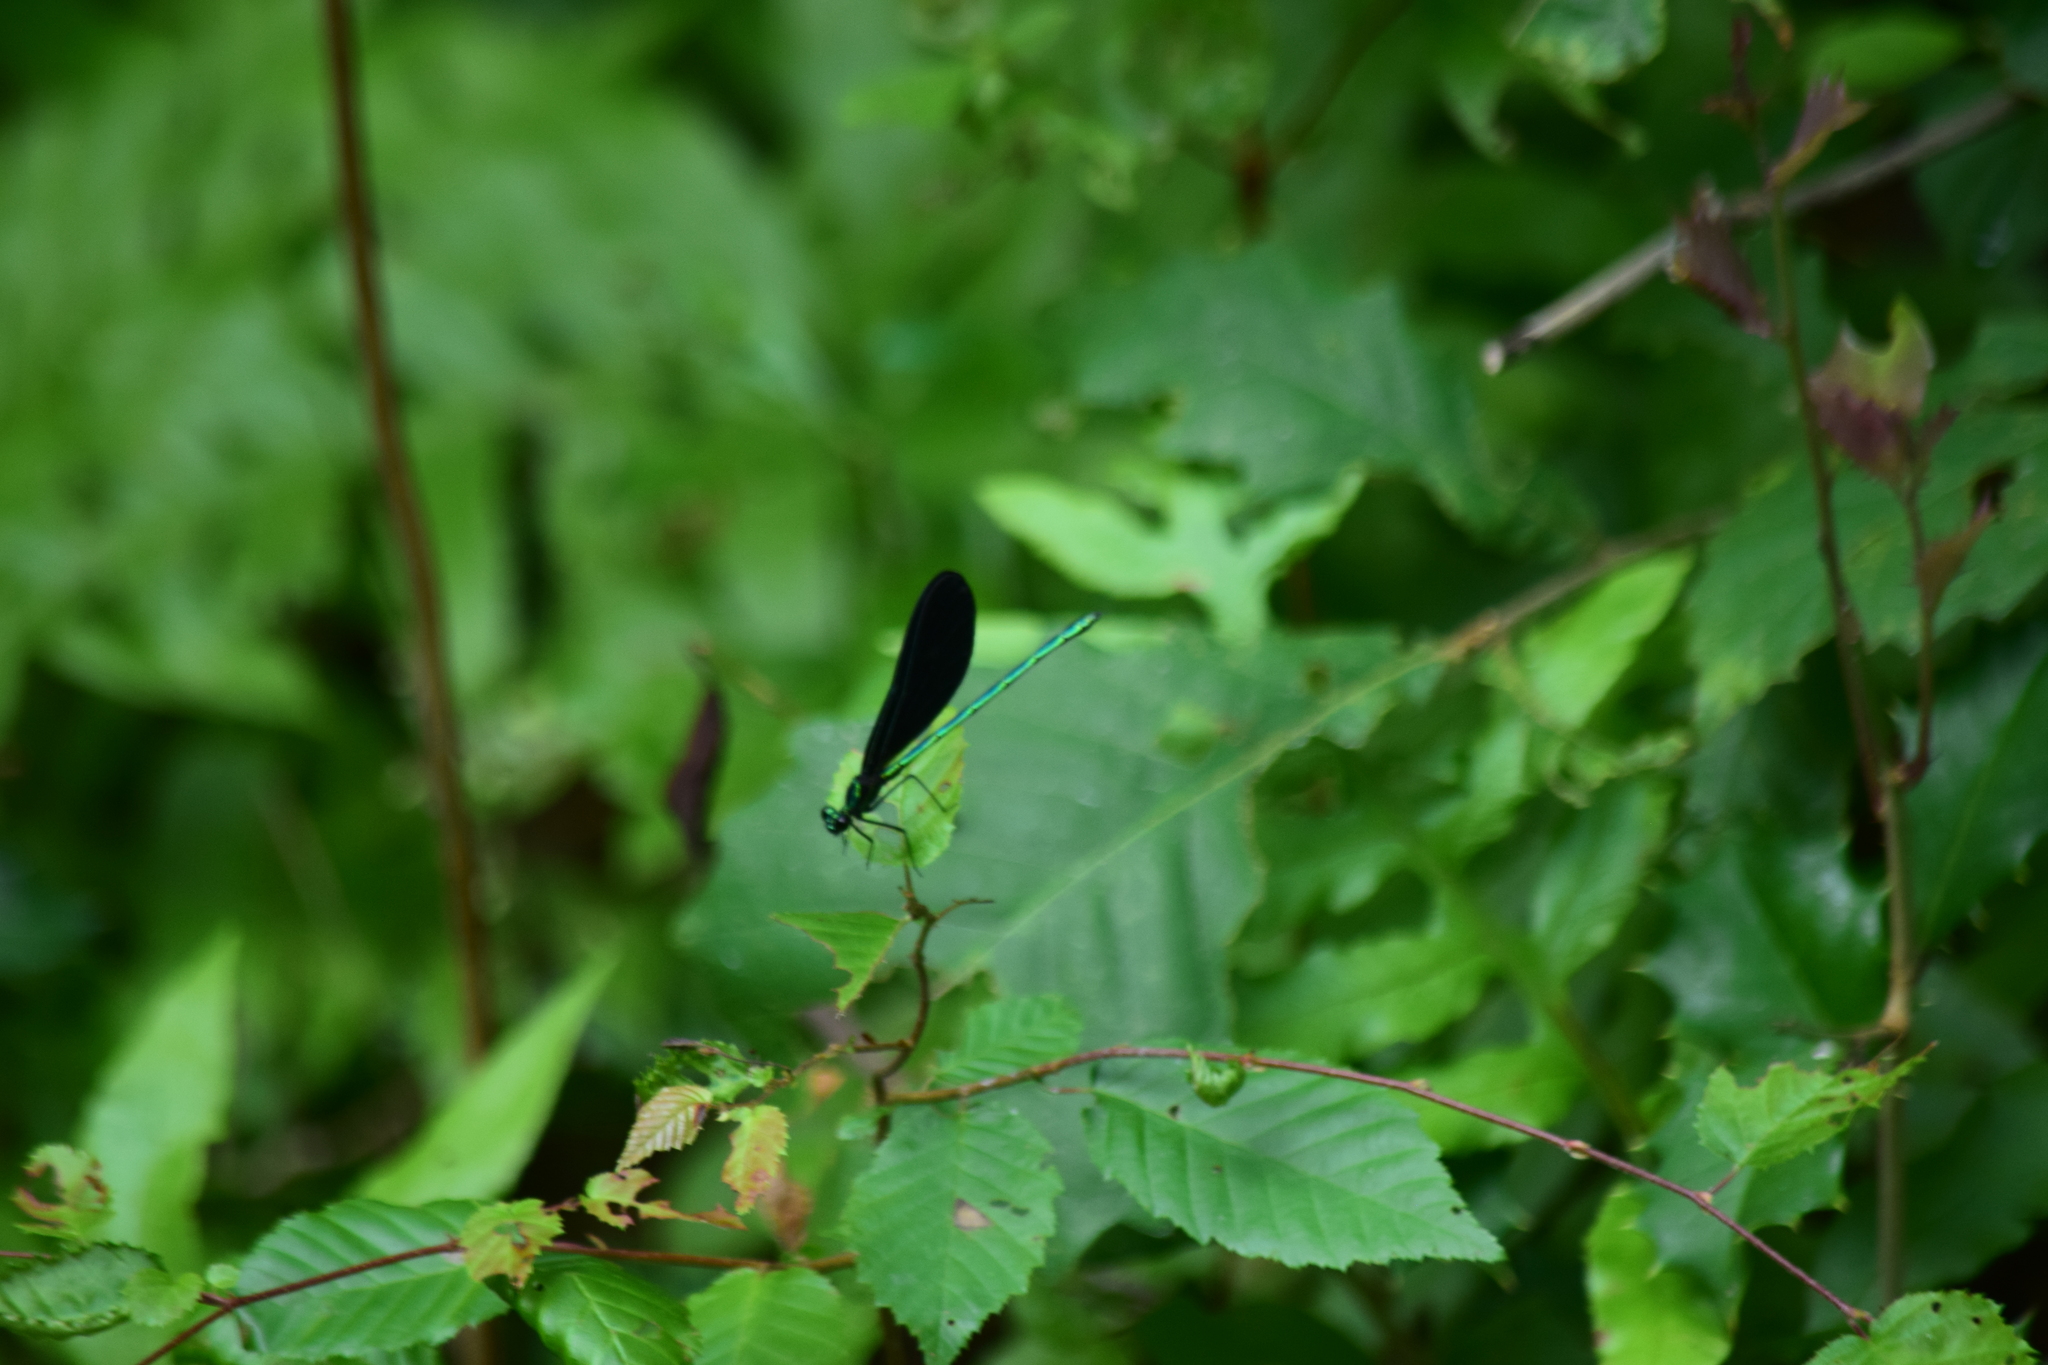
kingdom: Animalia
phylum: Arthropoda
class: Insecta
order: Odonata
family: Calopterygidae
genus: Calopteryx
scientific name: Calopteryx maculata
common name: Ebony jewelwing
